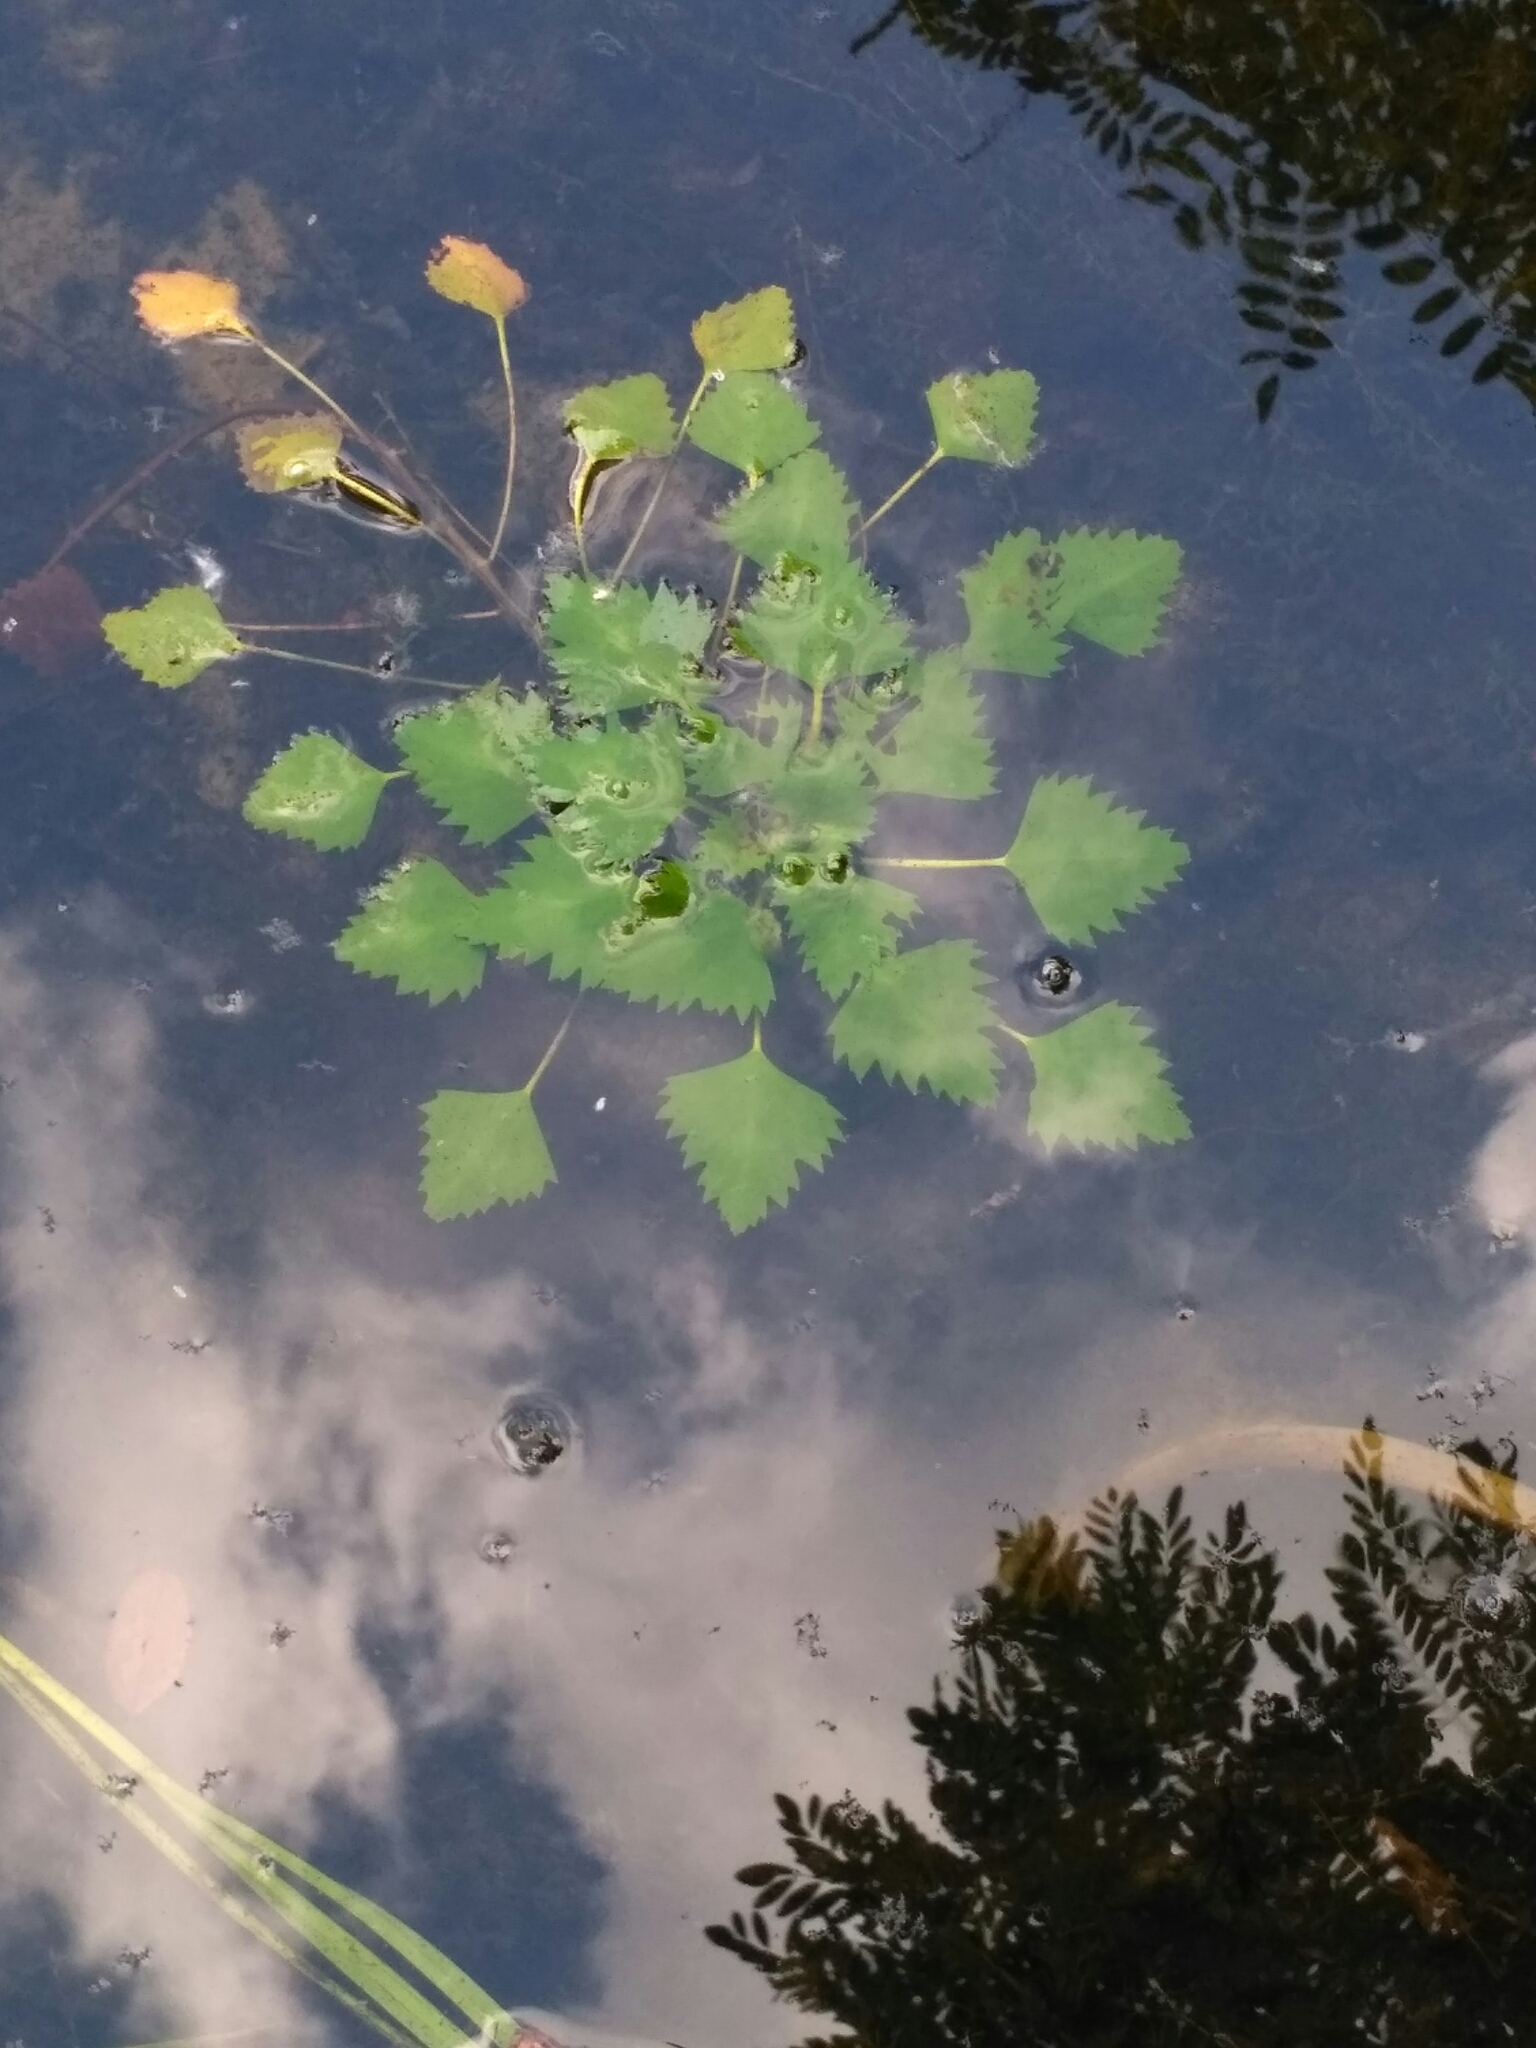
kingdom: Plantae
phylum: Tracheophyta
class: Magnoliopsida
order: Myrtales
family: Lythraceae
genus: Trapa
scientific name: Trapa natans
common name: Water chestnut
